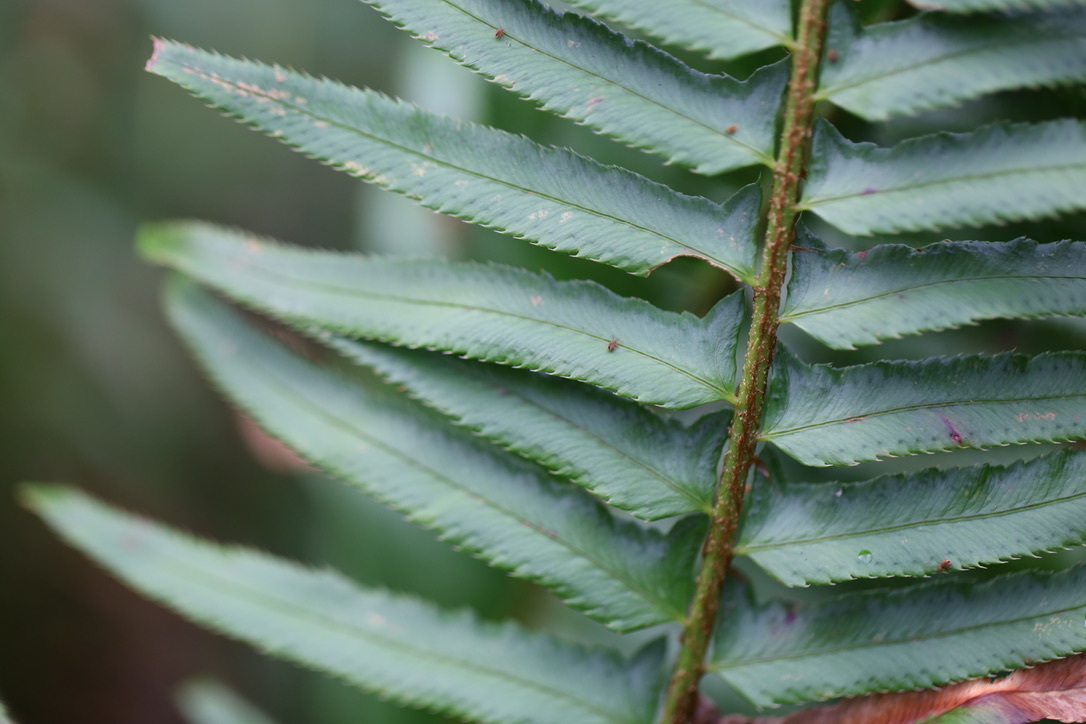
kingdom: Plantae
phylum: Tracheophyta
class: Polypodiopsida
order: Polypodiales
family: Dryopteridaceae
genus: Polystichum
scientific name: Polystichum munitum
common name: Western sword-fern
